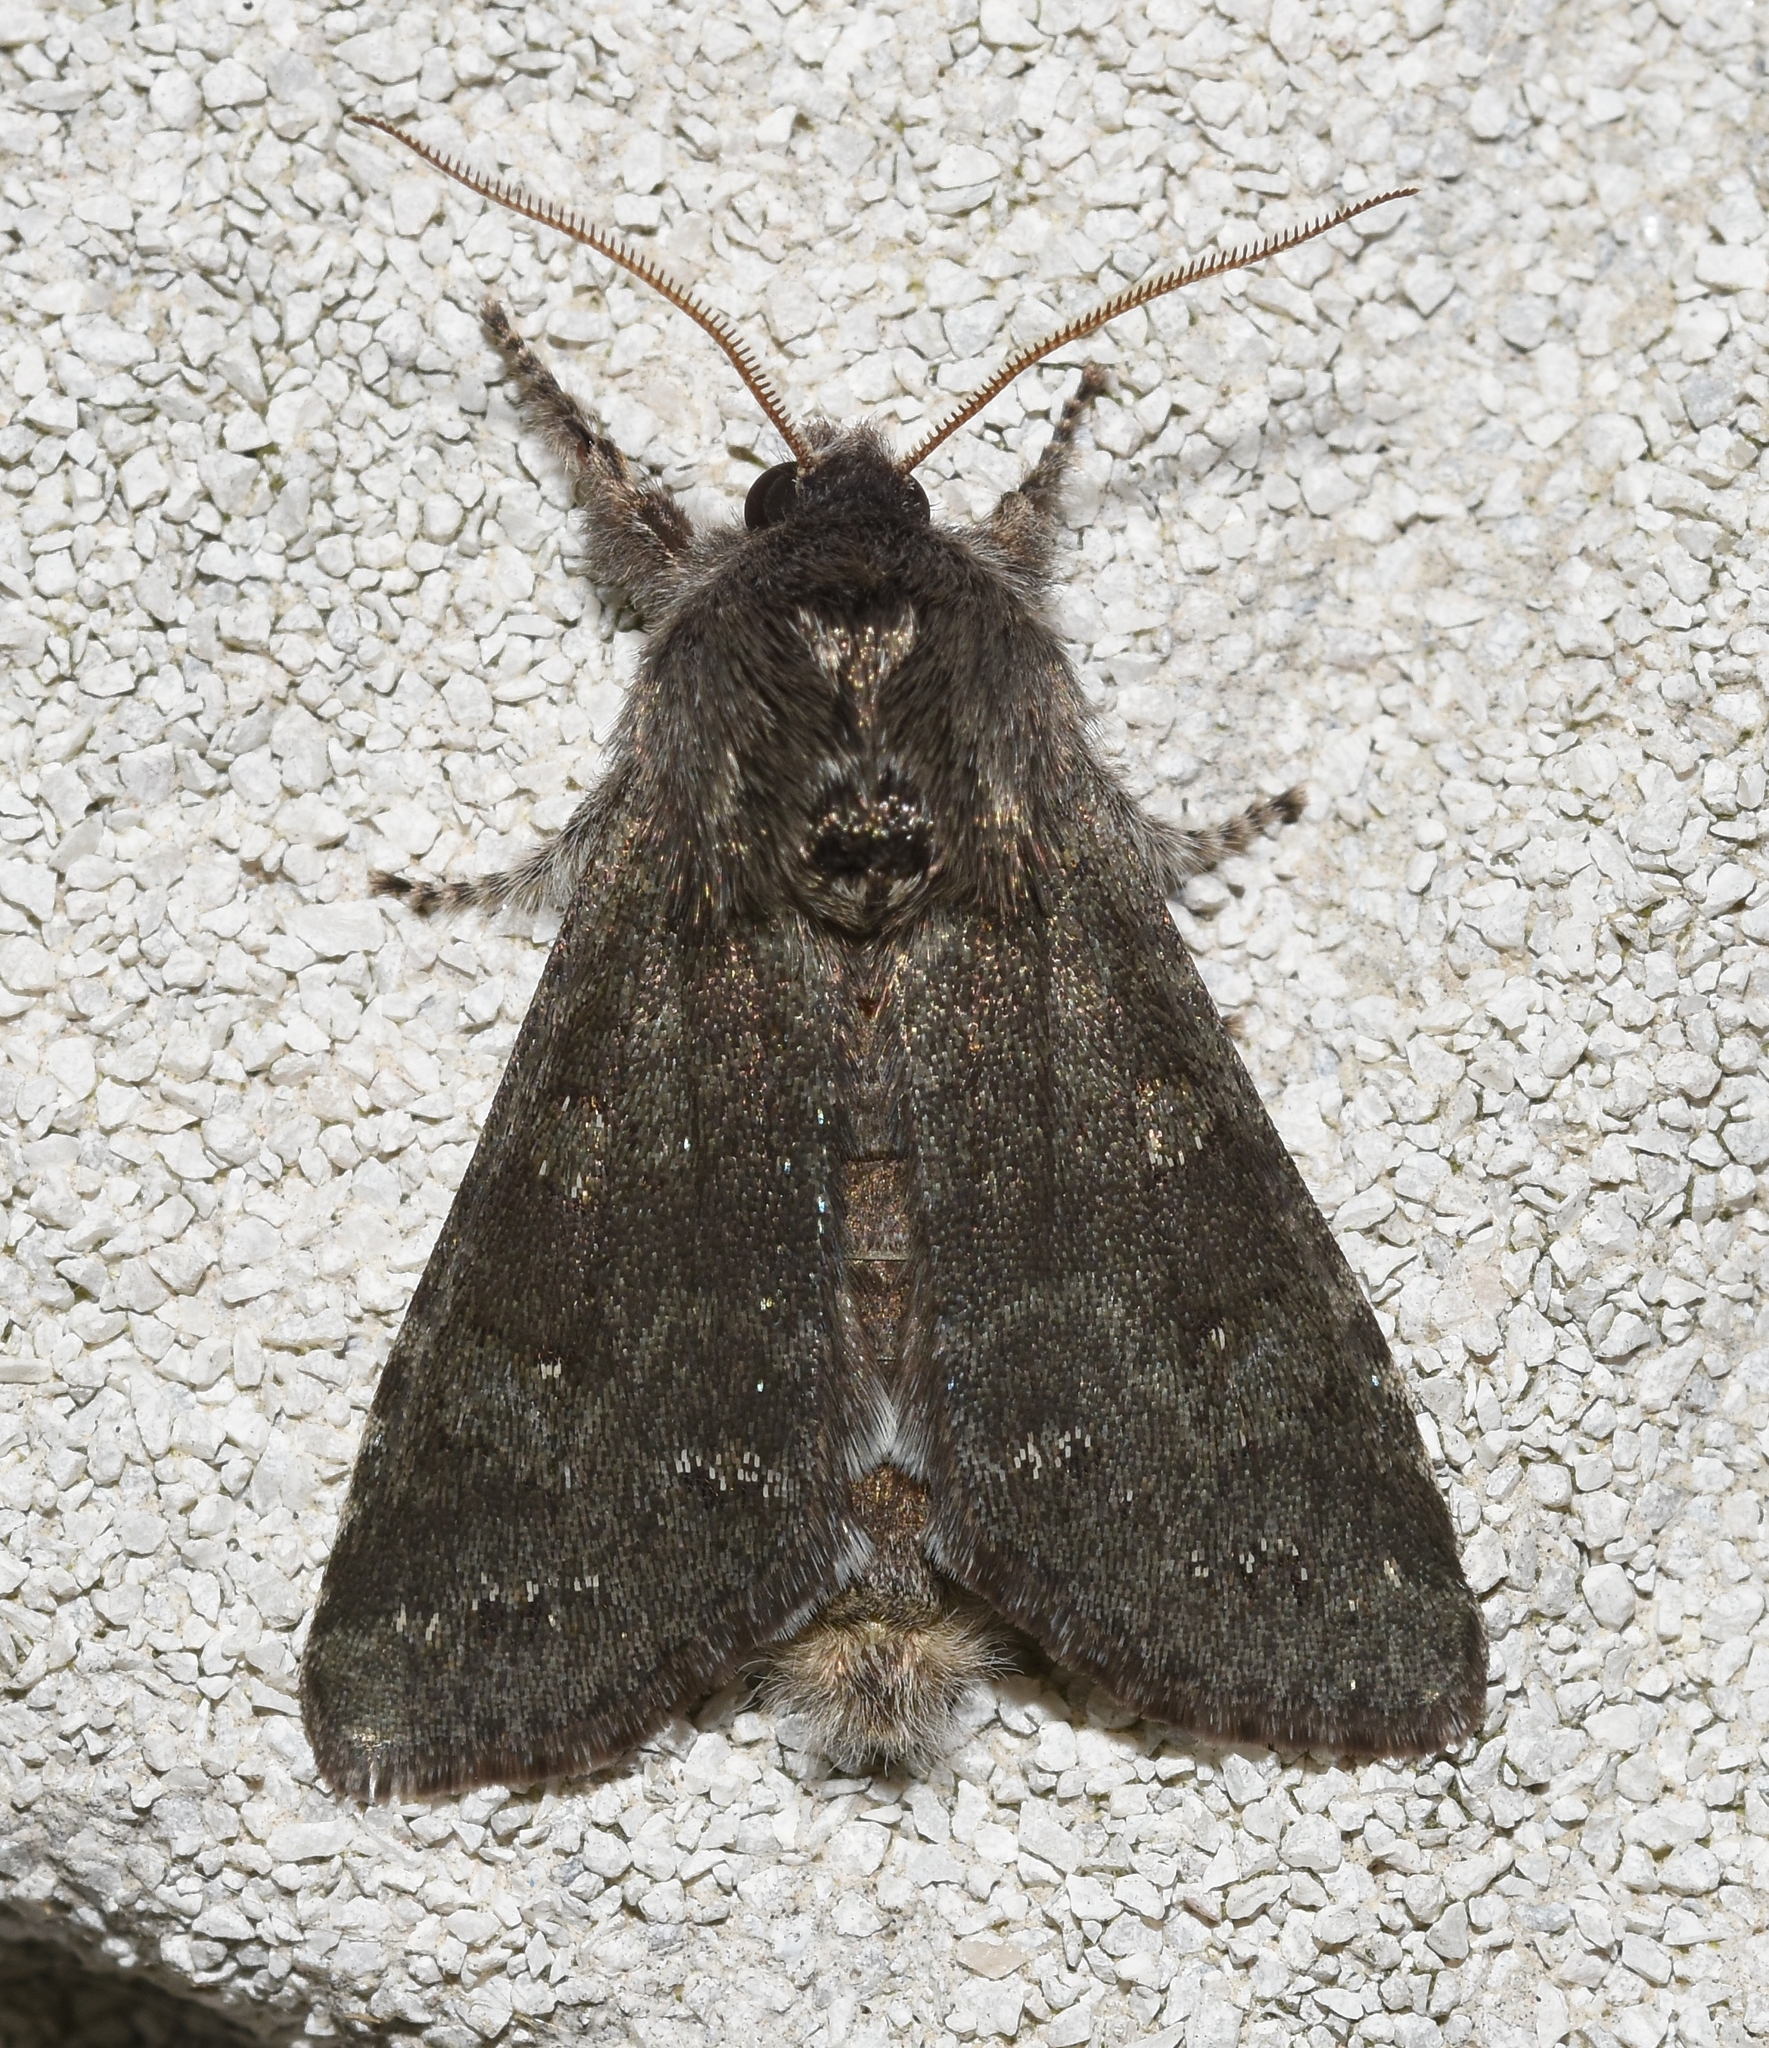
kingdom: Animalia
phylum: Arthropoda
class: Insecta
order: Lepidoptera
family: Noctuidae
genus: Psaphida
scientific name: Psaphida rolandi
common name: Roland's sallow
